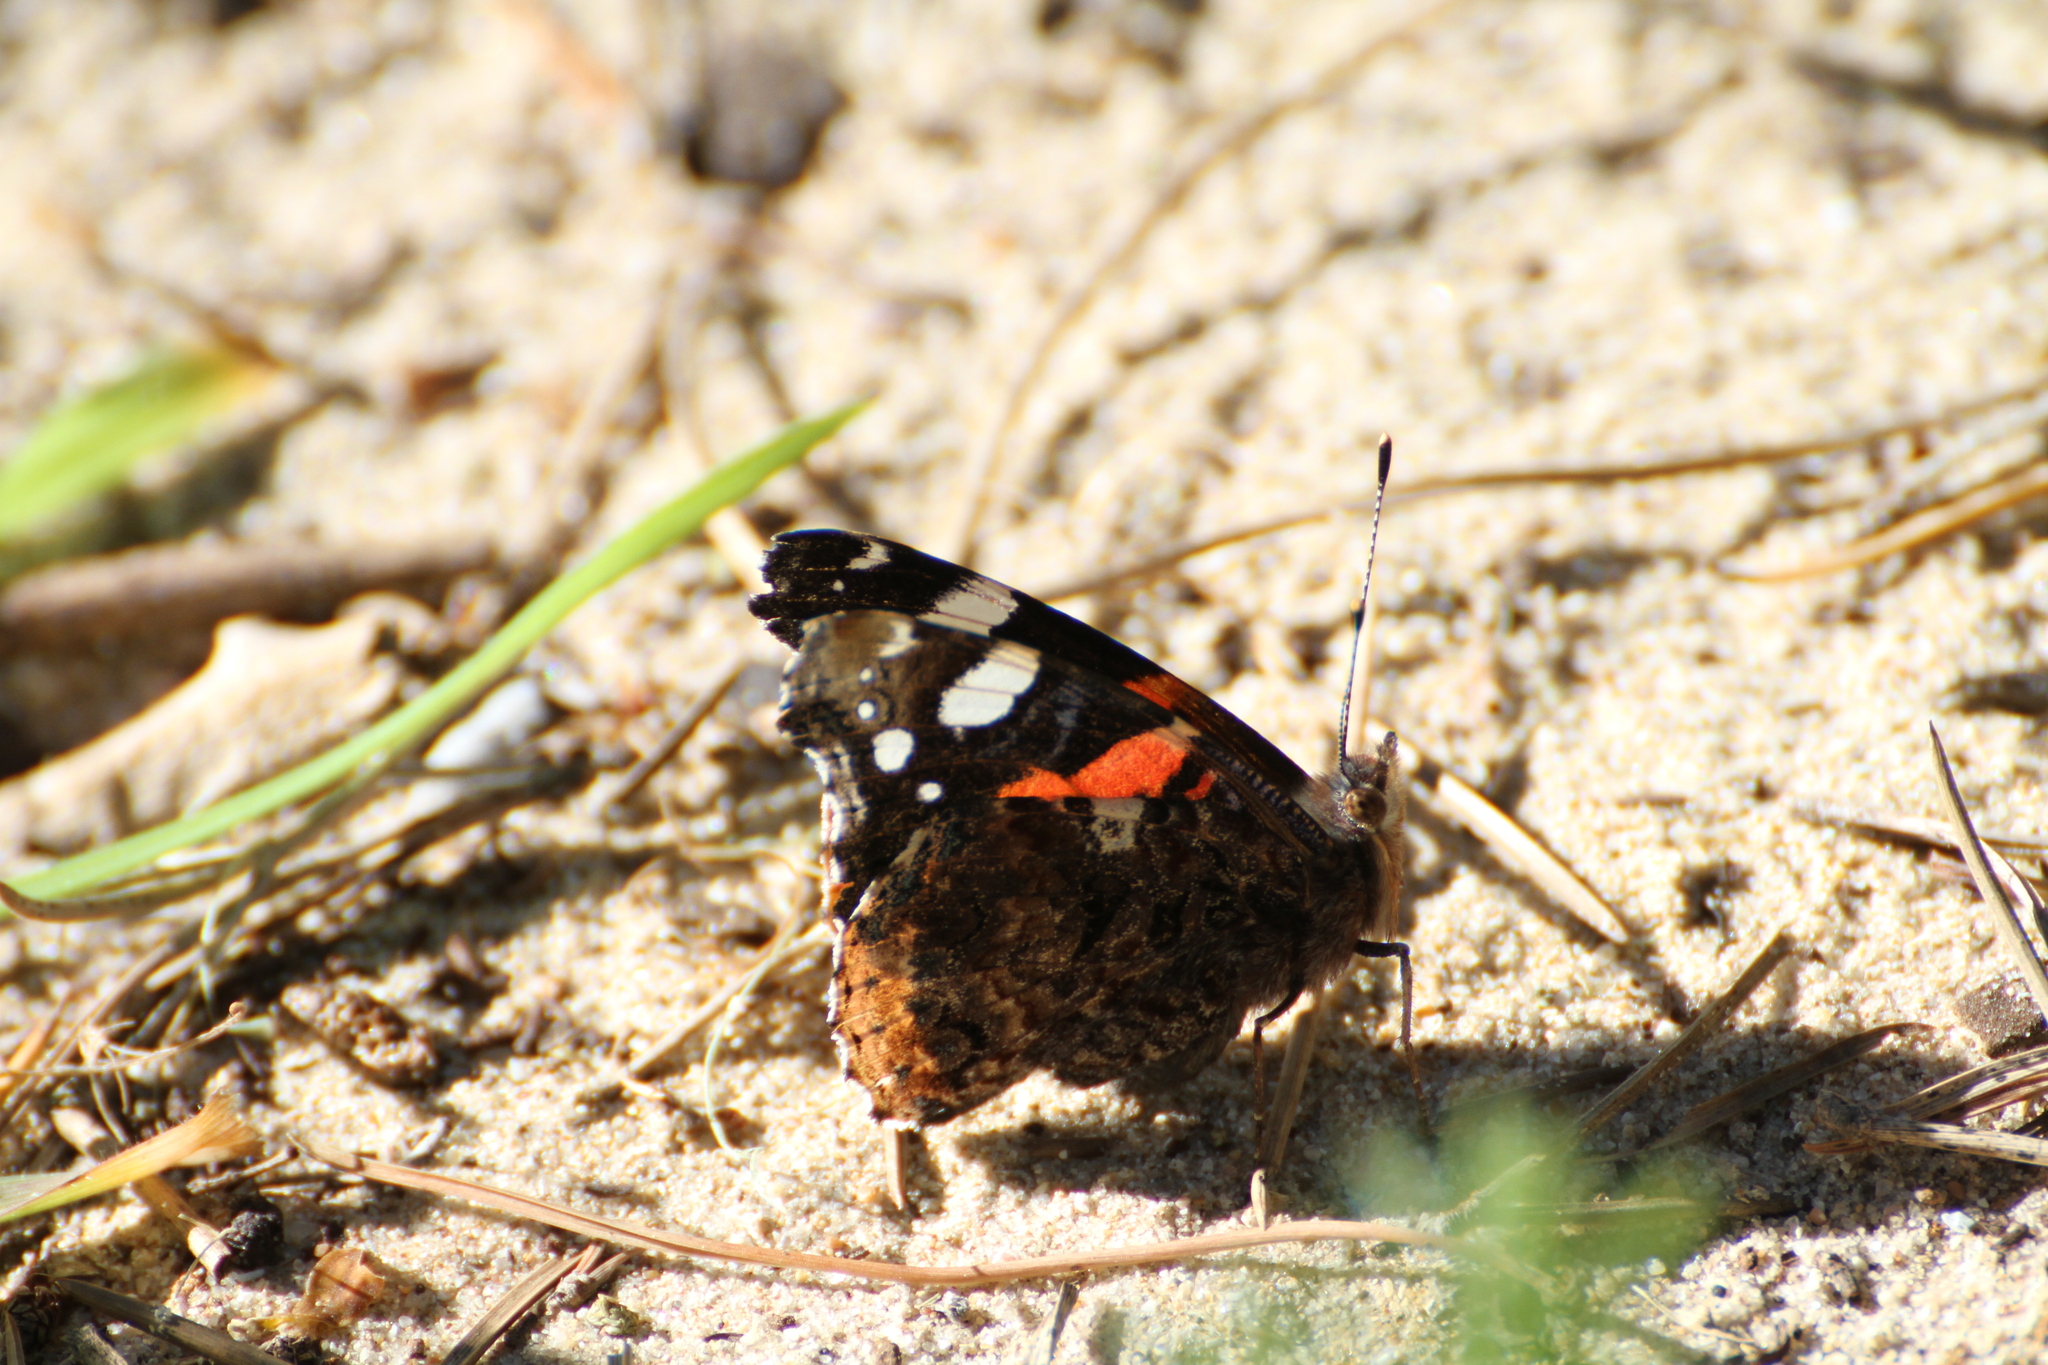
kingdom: Animalia
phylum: Arthropoda
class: Insecta
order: Lepidoptera
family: Nymphalidae
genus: Vanessa
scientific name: Vanessa atalanta
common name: Red admiral
